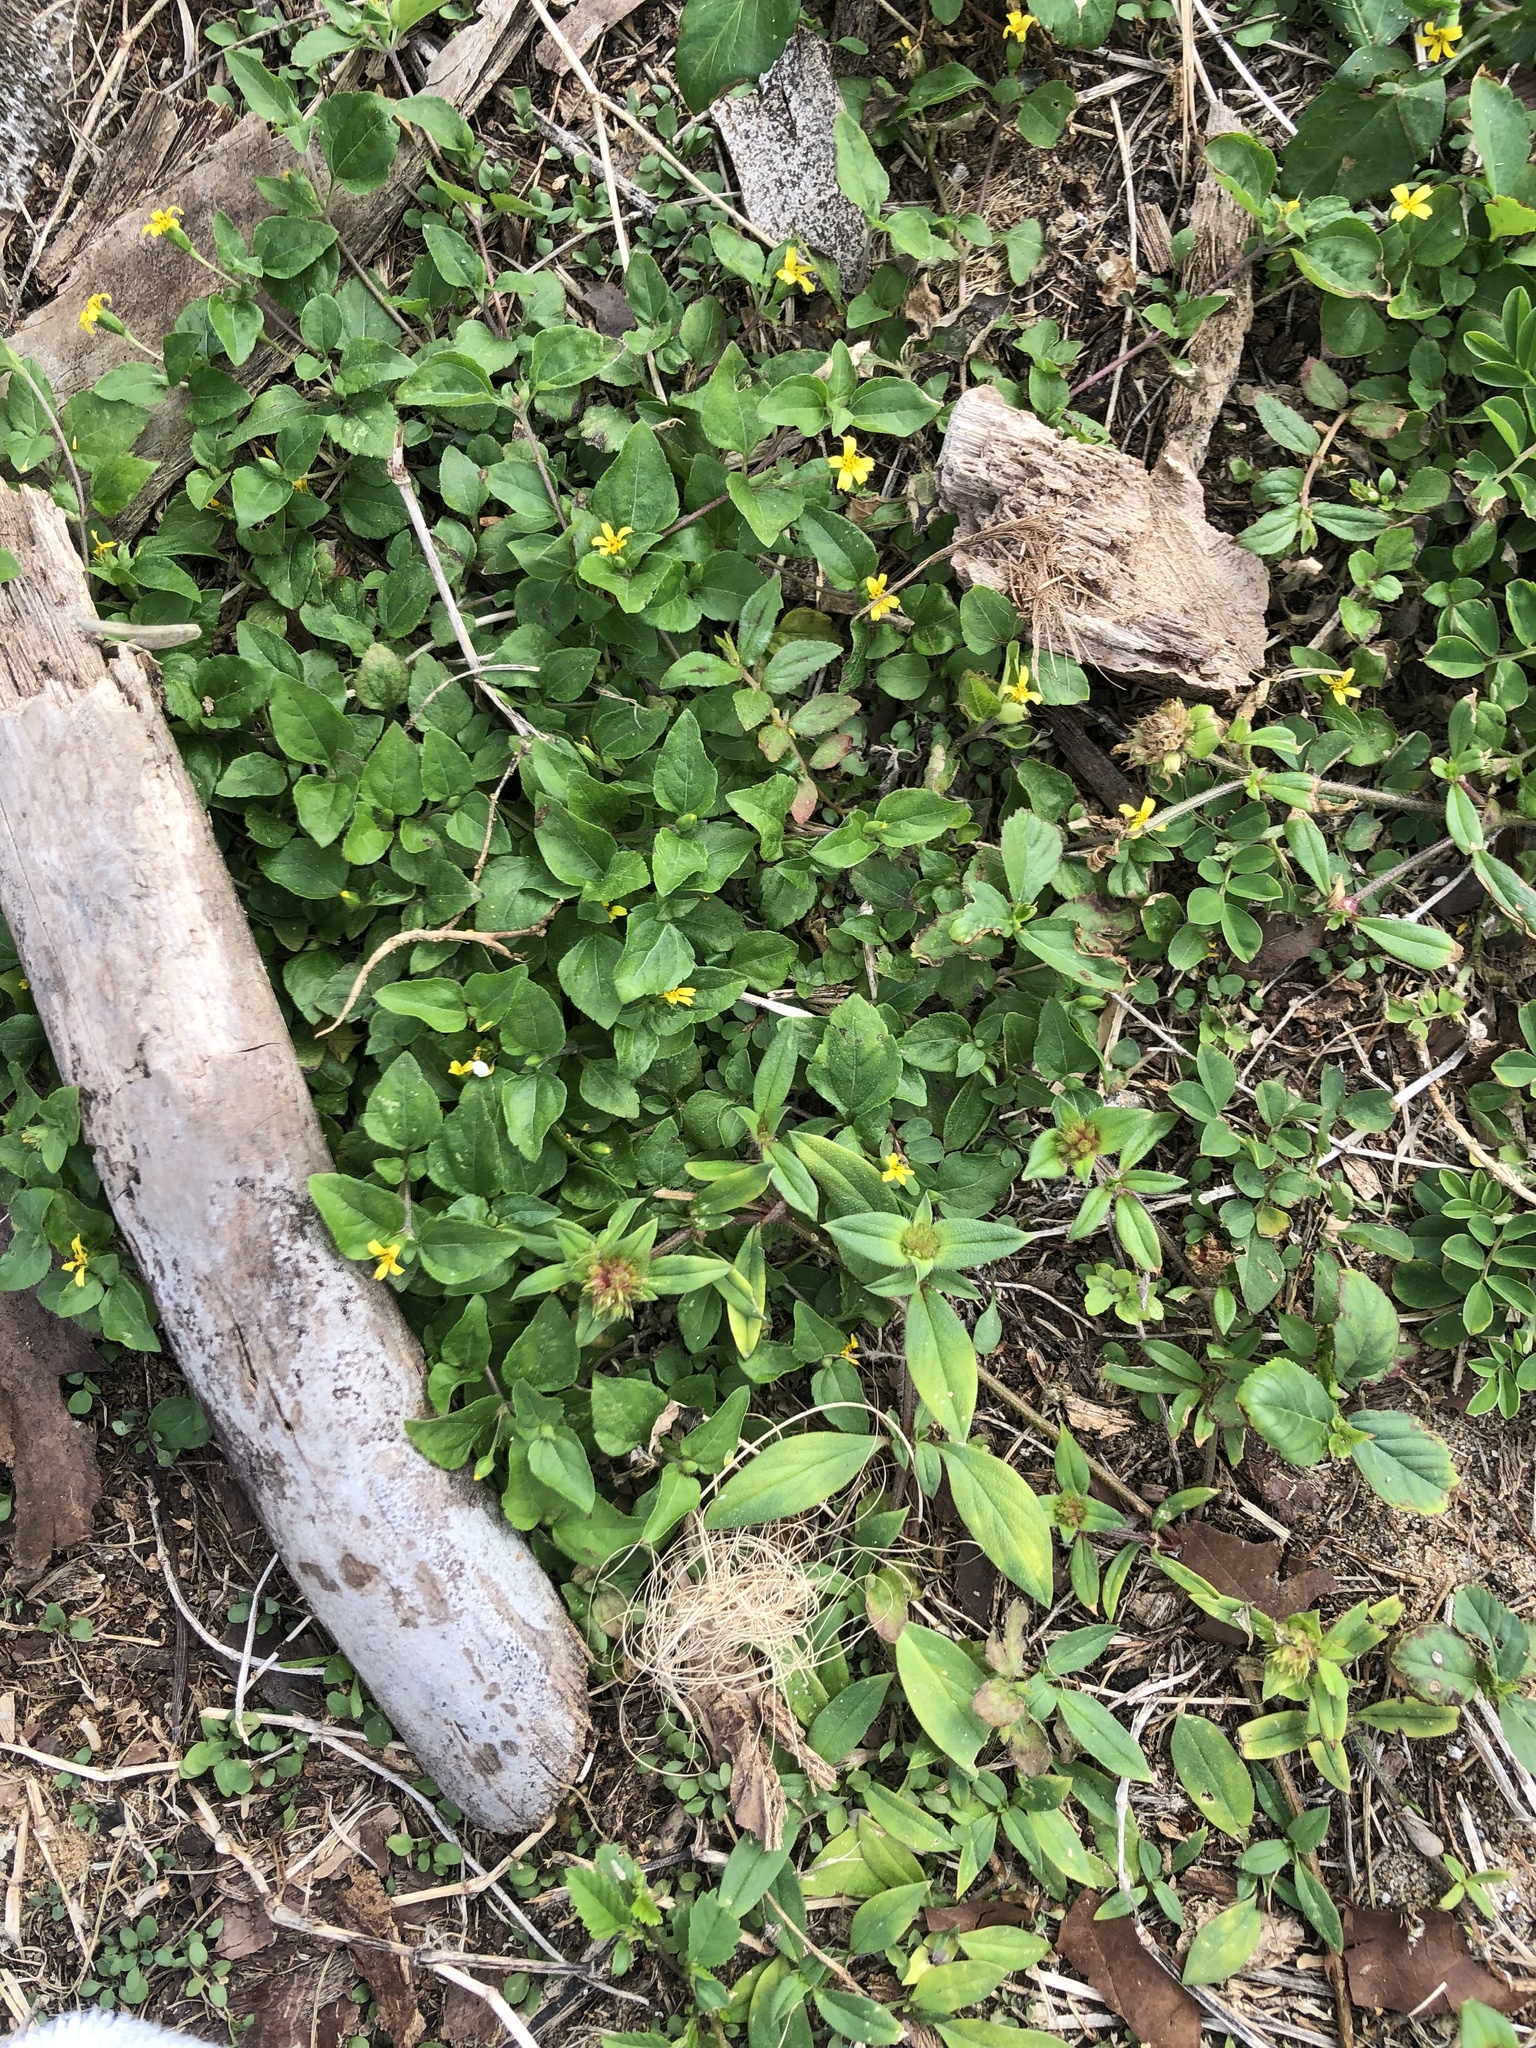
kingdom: Plantae
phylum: Tracheophyta
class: Magnoliopsida
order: Asterales
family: Asteraceae
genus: Calyptocarpus
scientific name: Calyptocarpus vialis
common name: Straggler daisy
